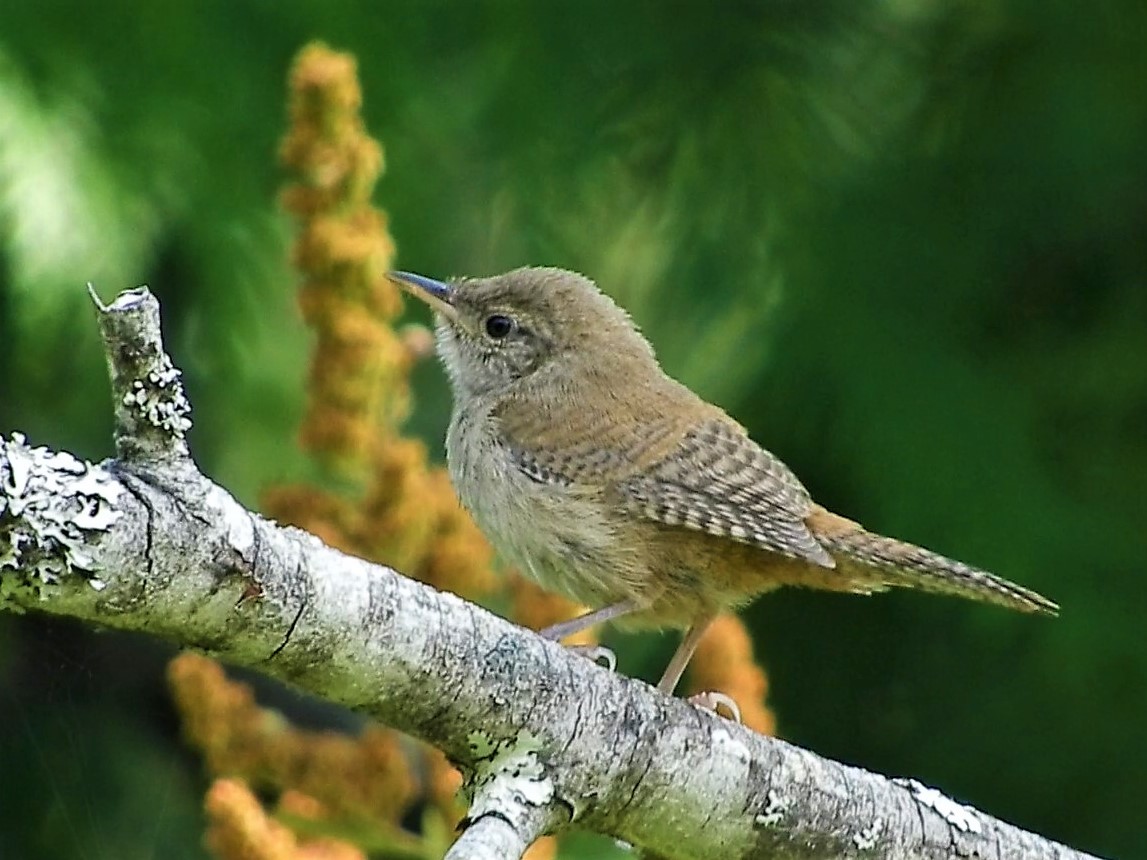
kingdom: Animalia
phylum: Chordata
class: Aves
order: Passeriformes
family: Troglodytidae
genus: Troglodytes
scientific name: Troglodytes aedon
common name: House wren
